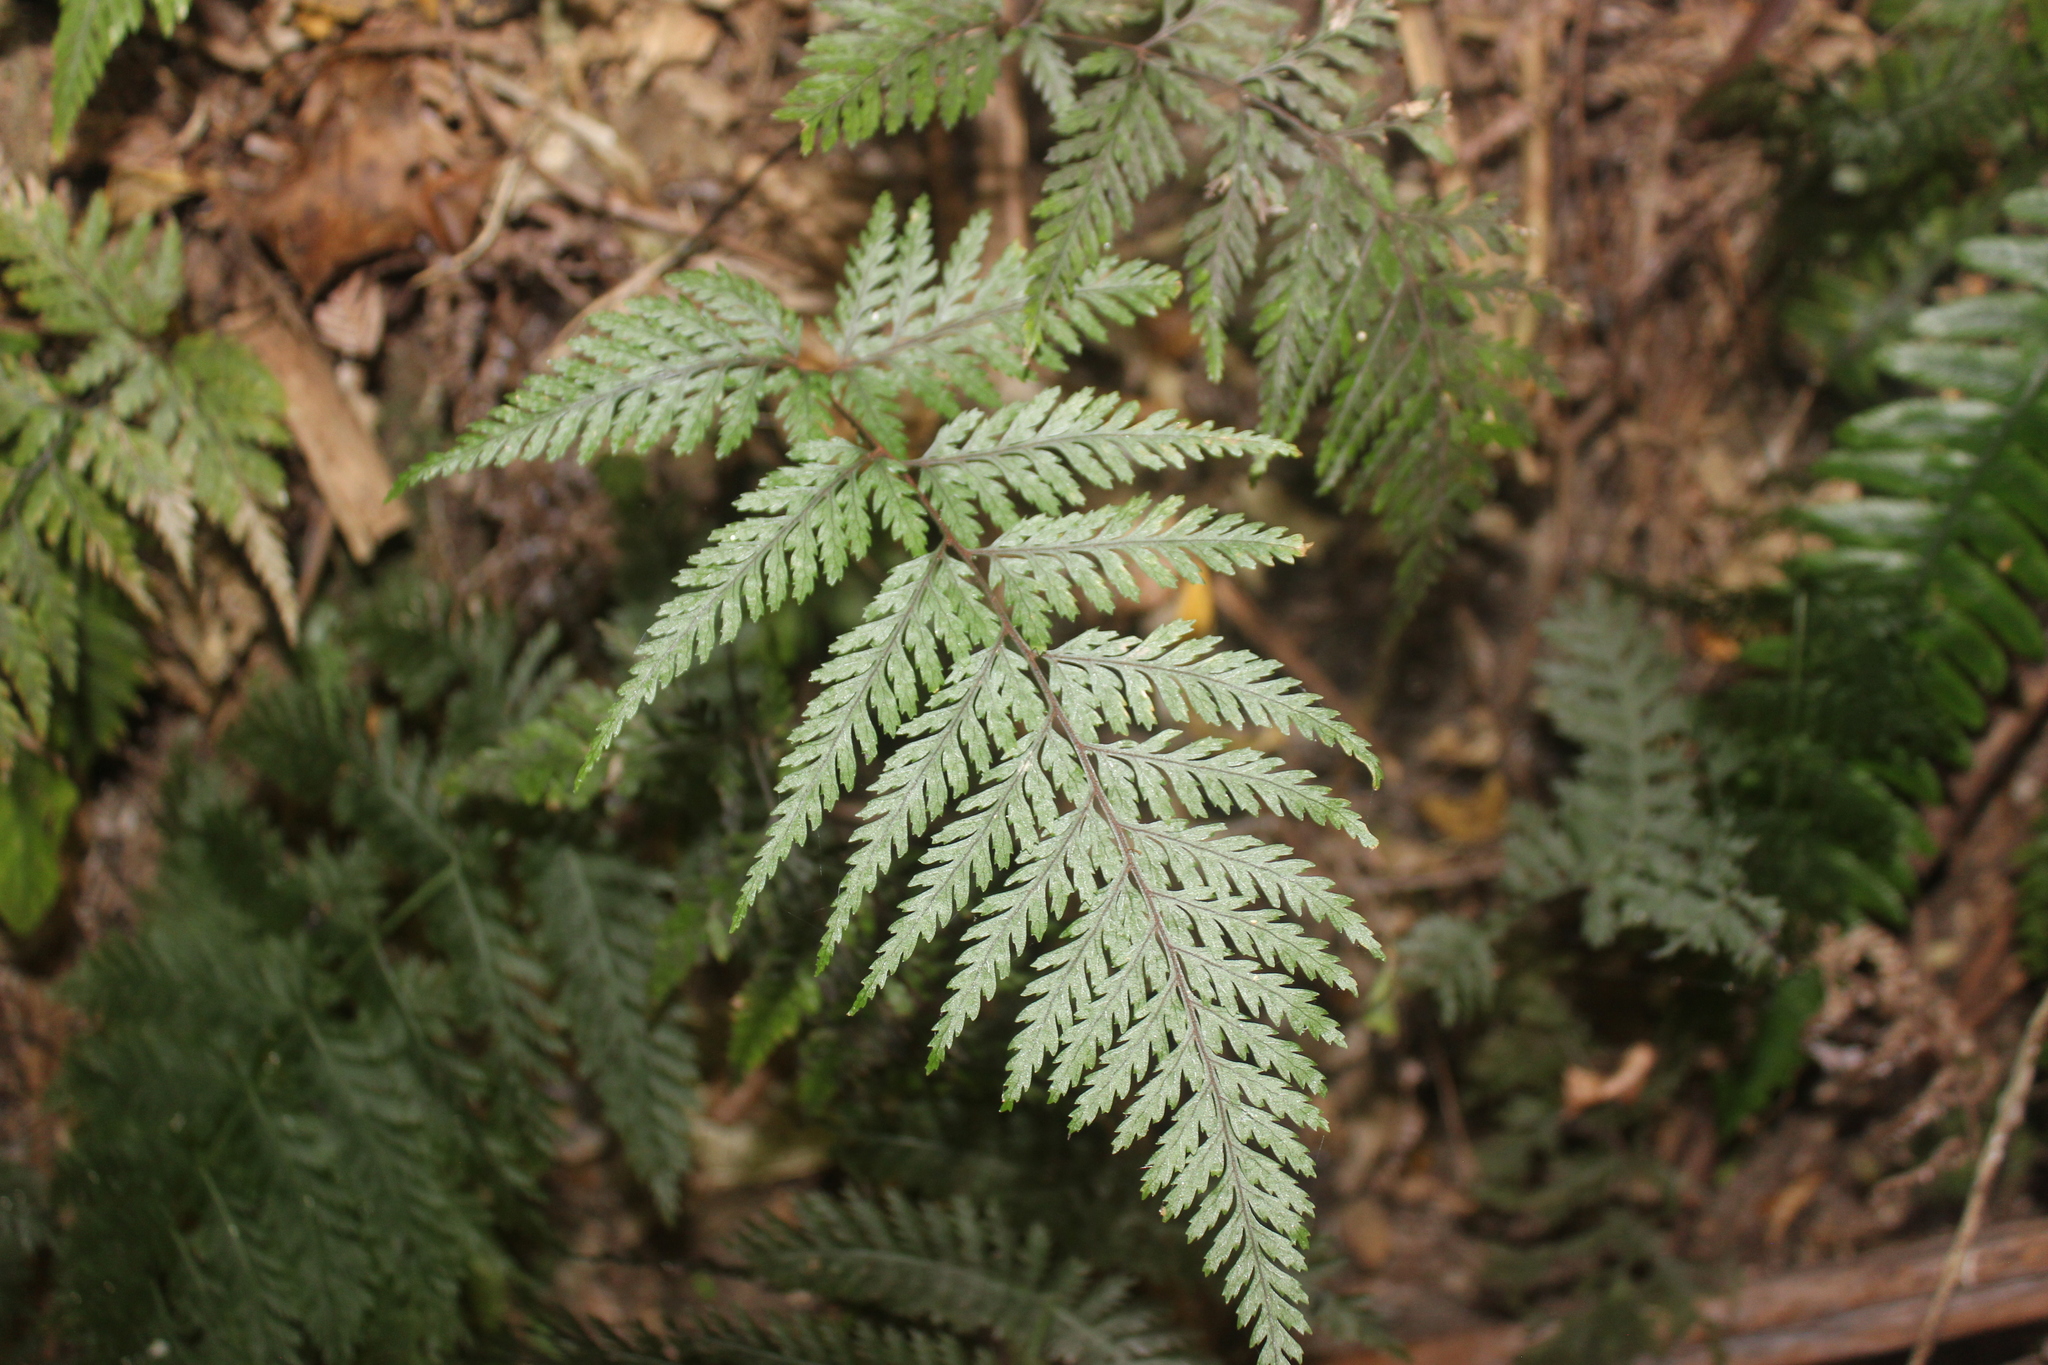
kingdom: Plantae
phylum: Tracheophyta
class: Polypodiopsida
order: Polypodiales
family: Dryopteridaceae
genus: Parapolystichum
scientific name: Parapolystichum glabellum
